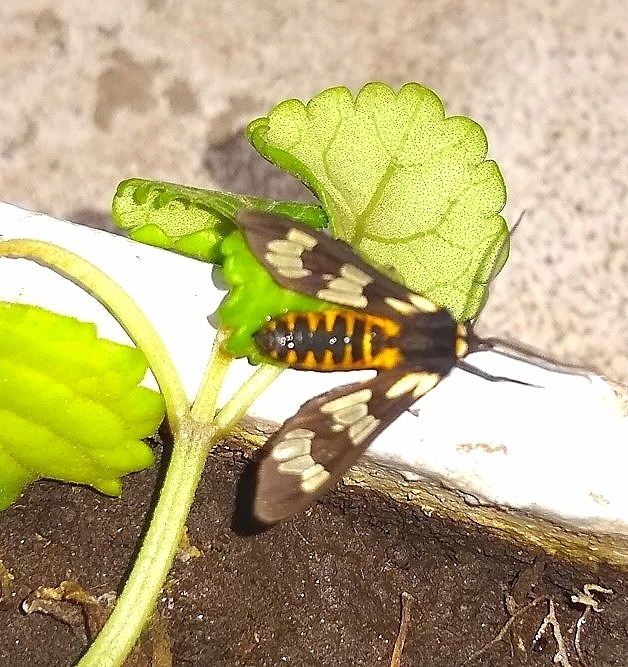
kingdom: Animalia
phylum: Arthropoda
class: Insecta
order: Lepidoptera
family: Erebidae
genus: Eurata
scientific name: Eurata
